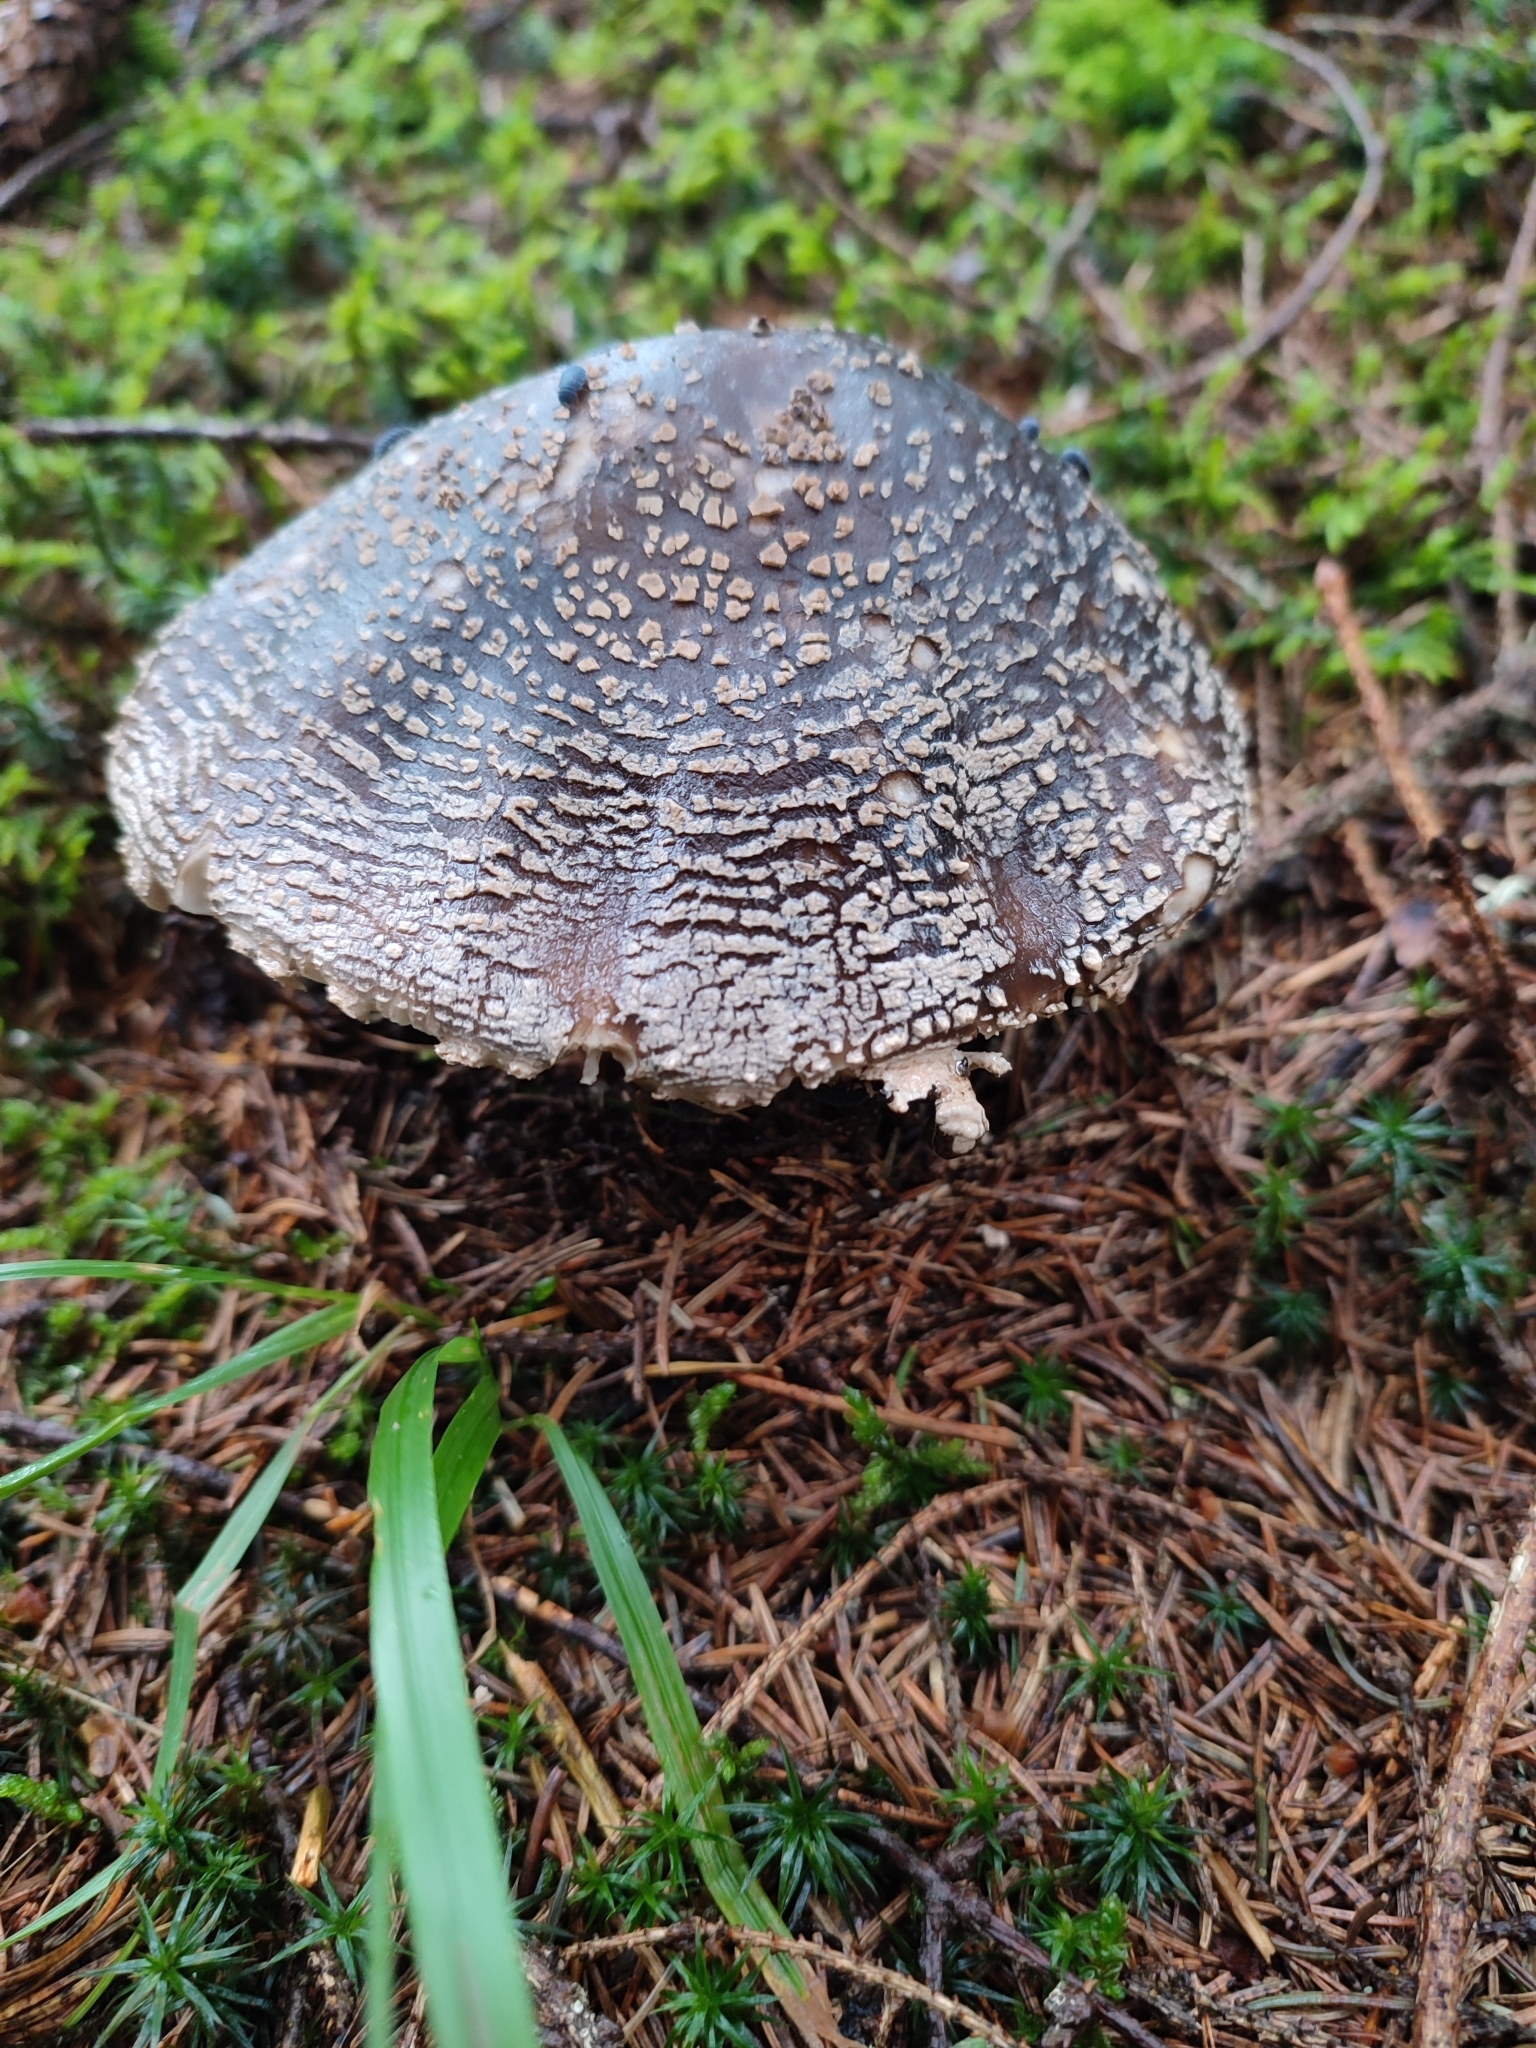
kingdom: Fungi
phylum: Basidiomycota
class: Agaricomycetes
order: Agaricales
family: Amanitaceae
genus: Amanita
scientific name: Amanita excelsa
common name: European false blusher
